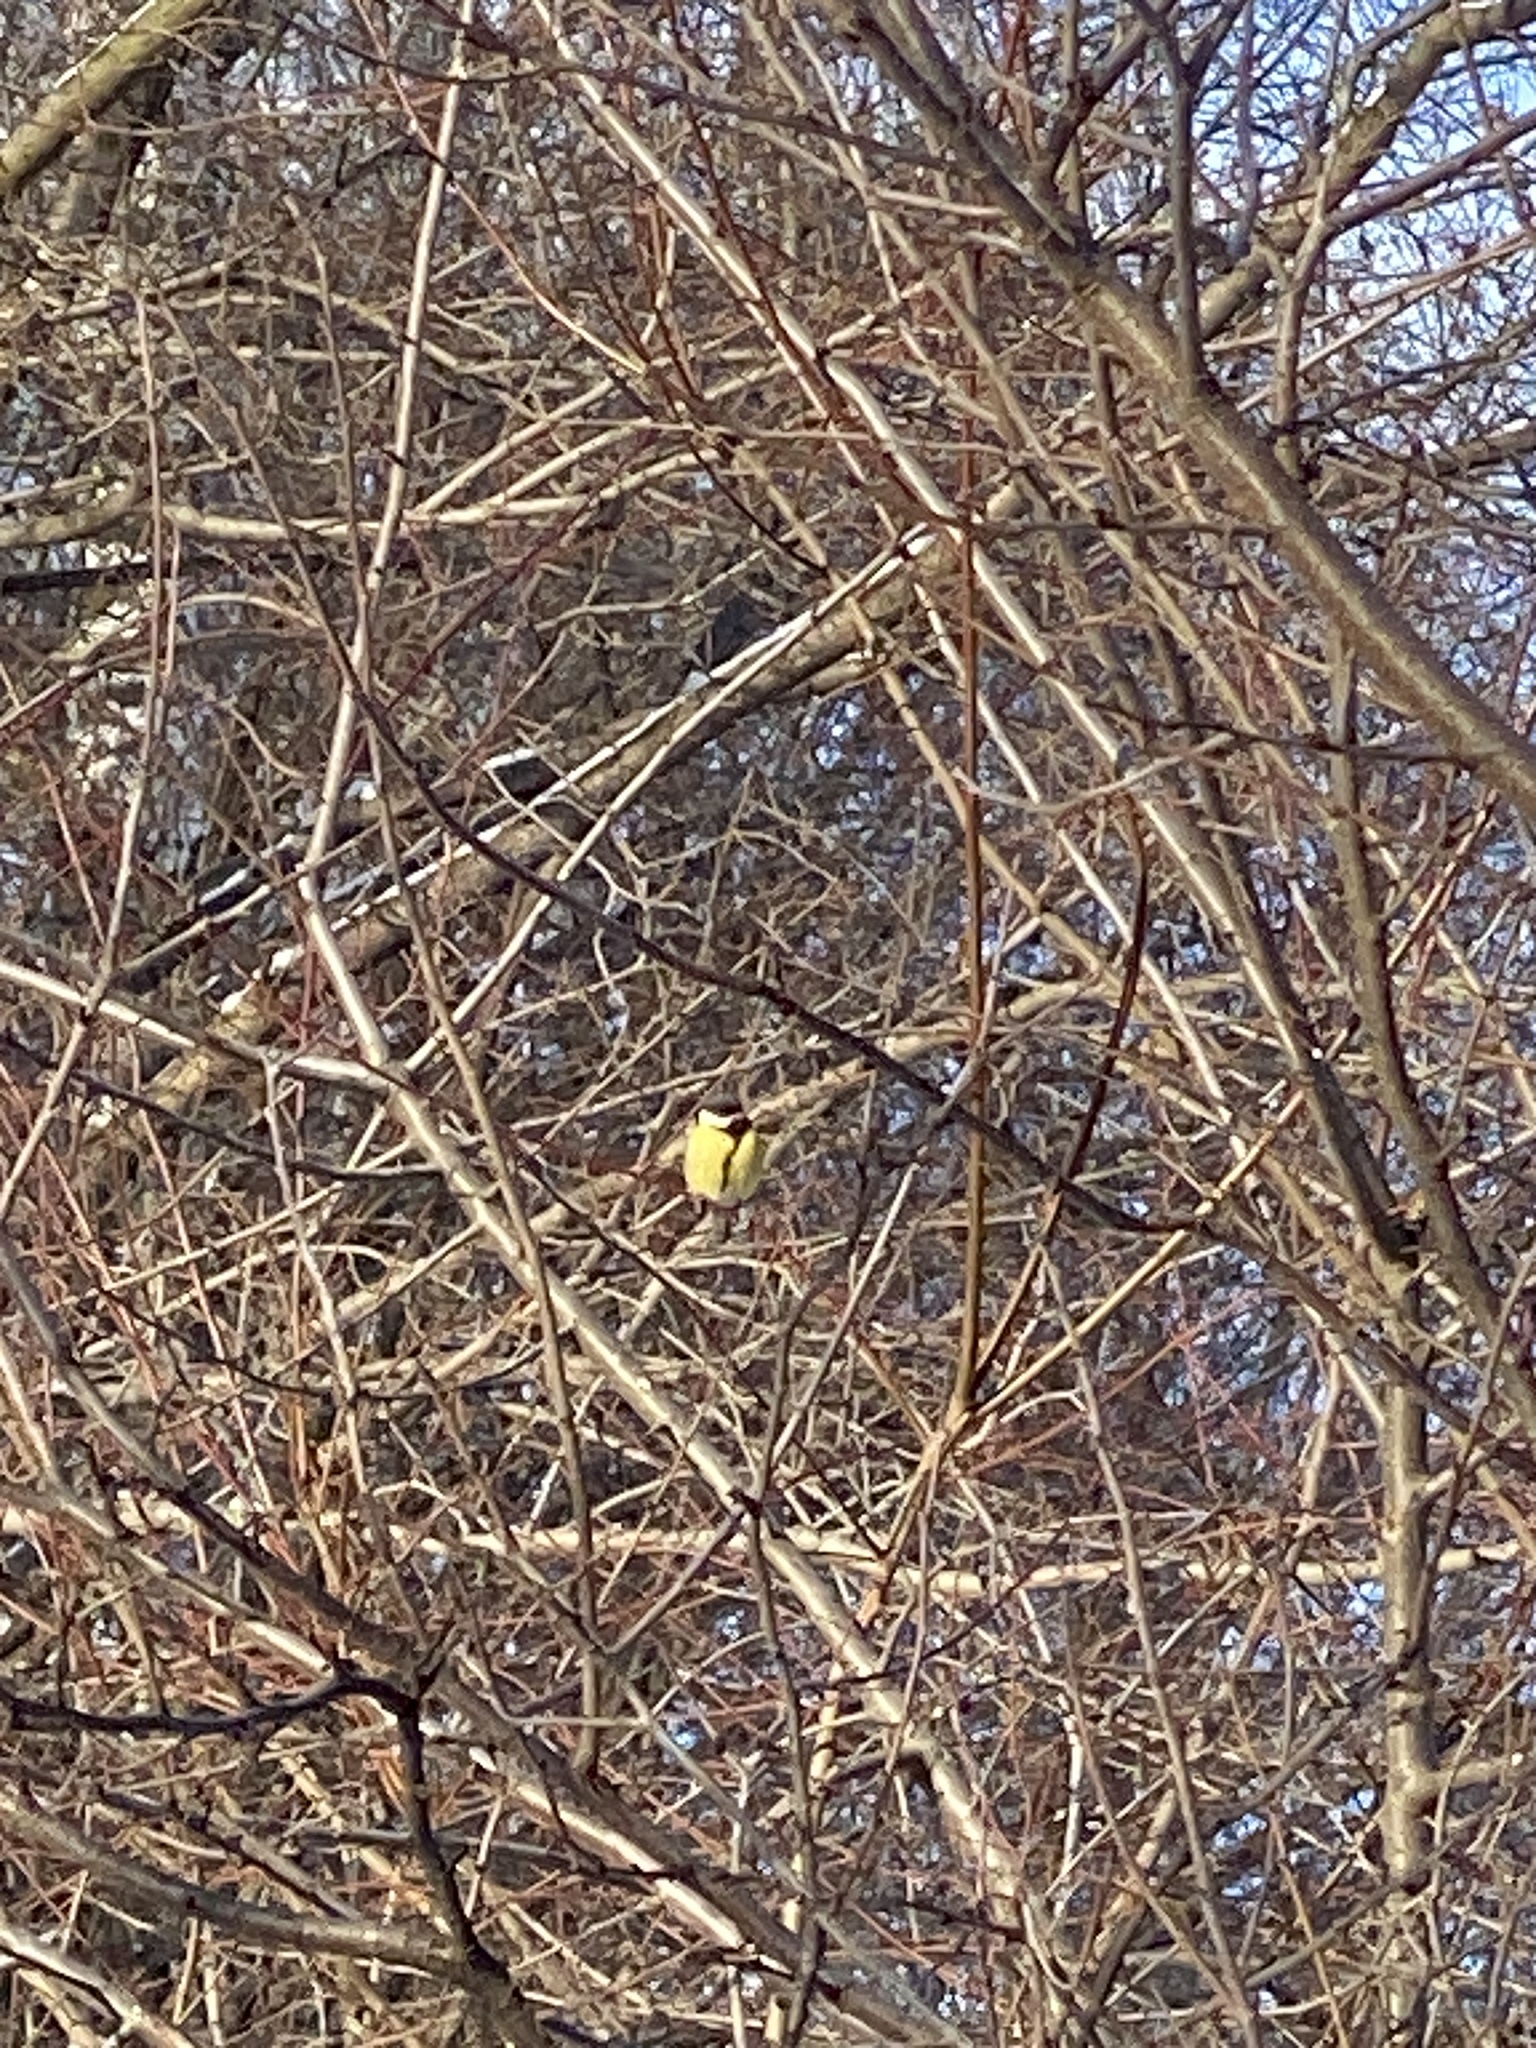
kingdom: Animalia
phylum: Chordata
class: Aves
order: Passeriformes
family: Paridae
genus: Parus
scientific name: Parus major
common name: Great tit
